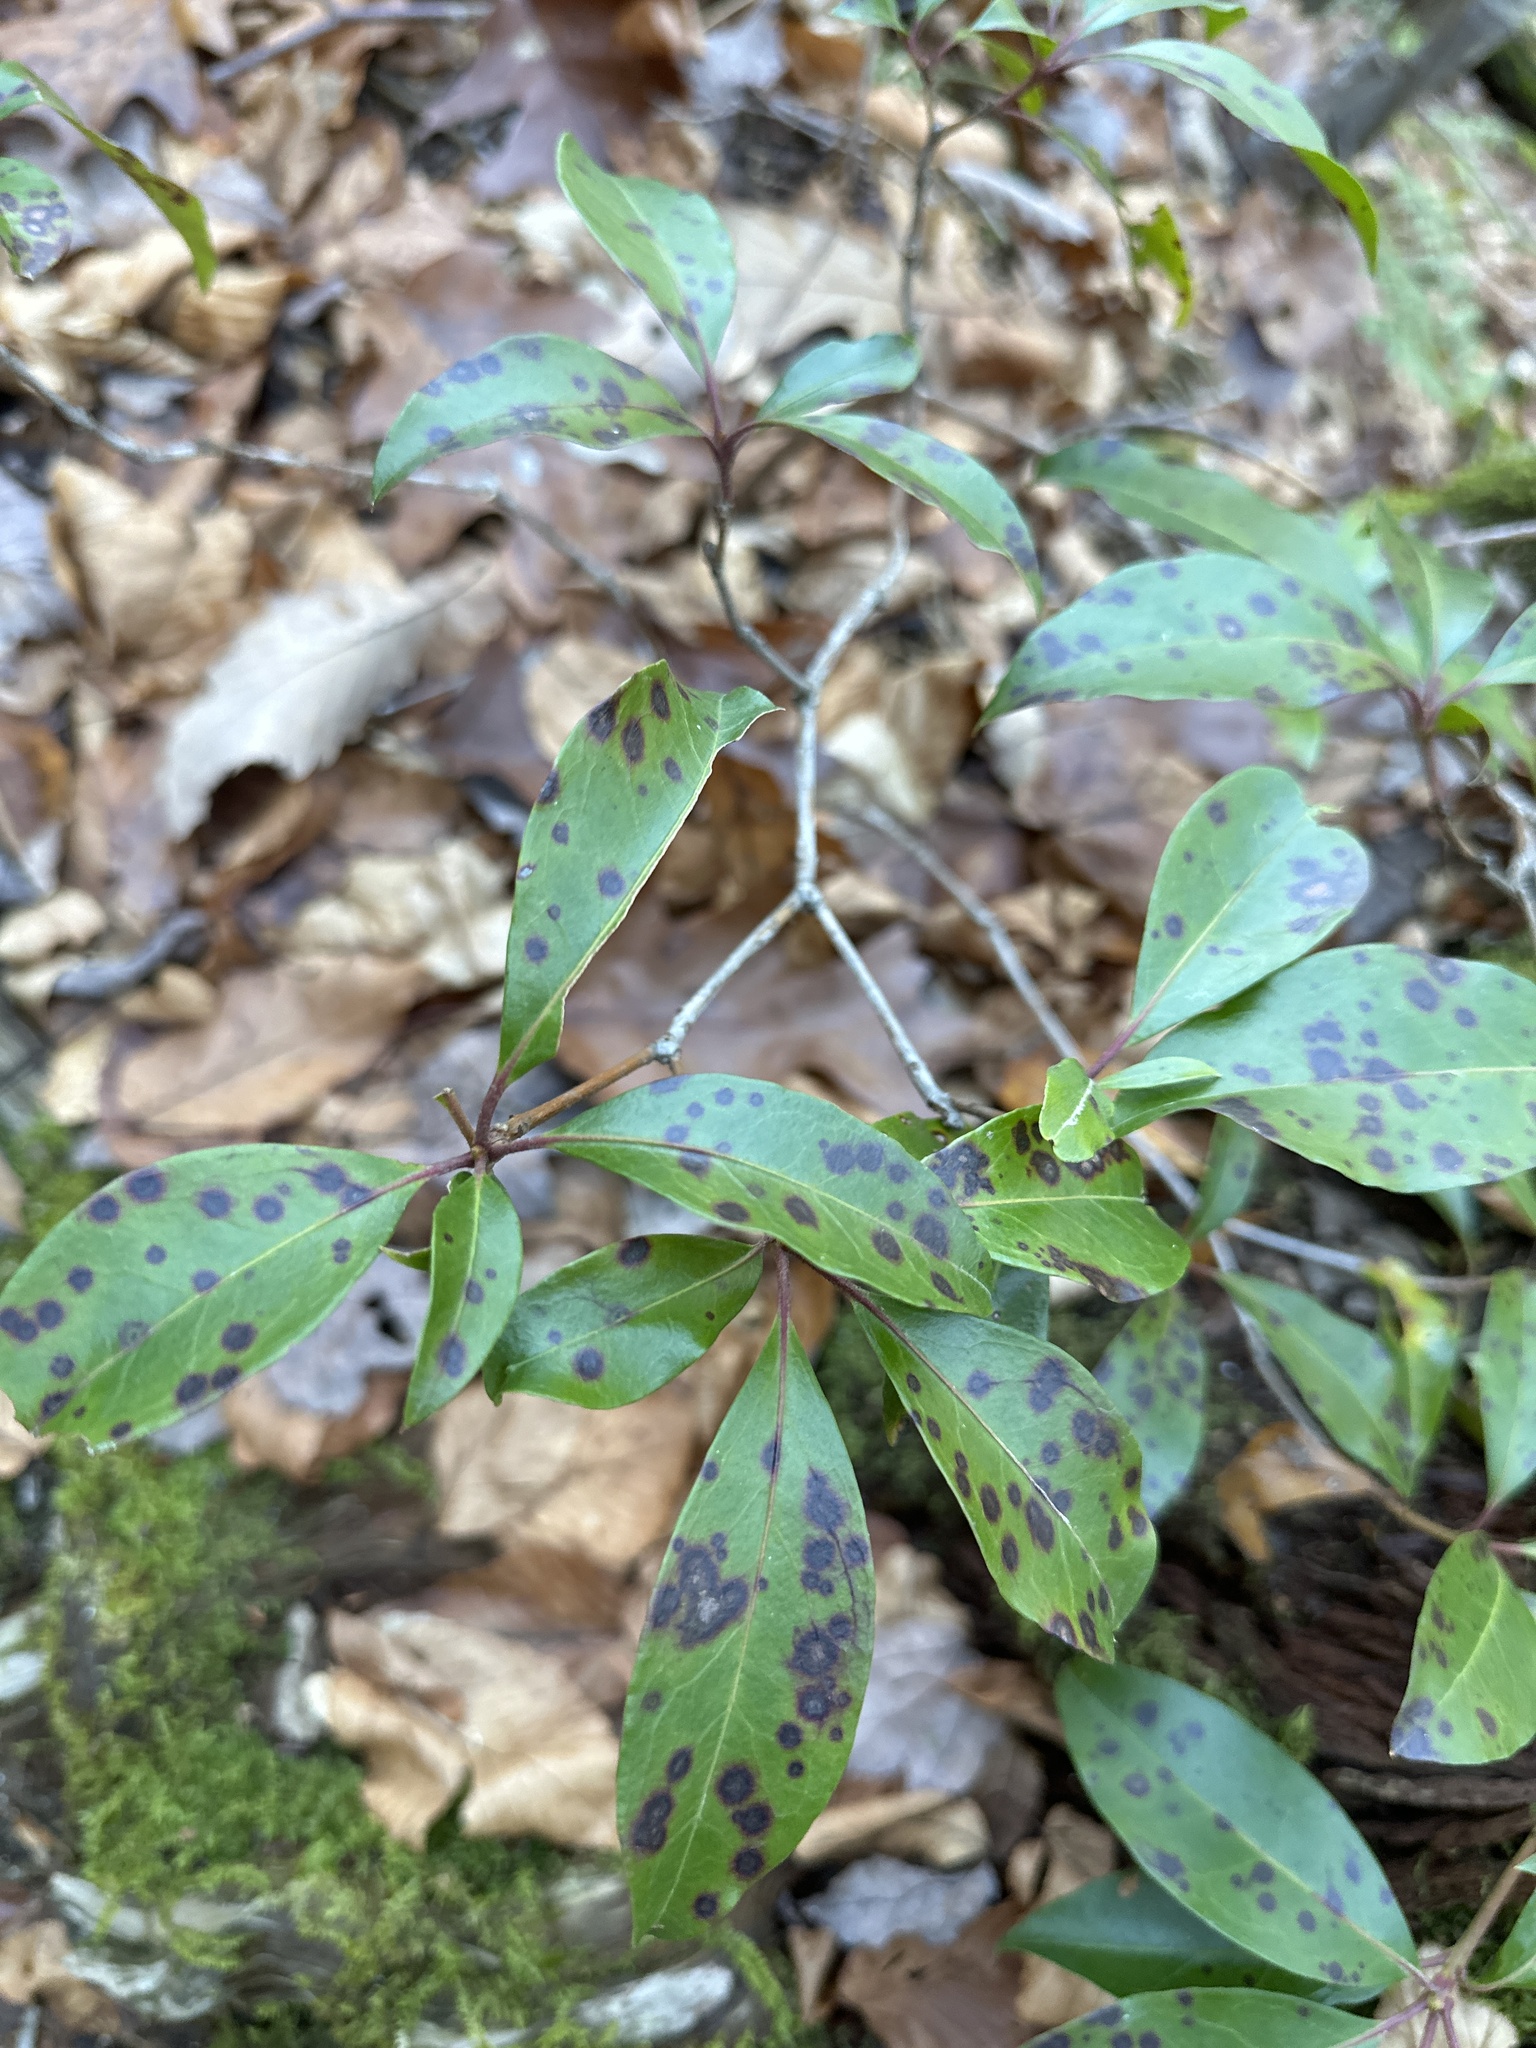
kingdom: Plantae
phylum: Tracheophyta
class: Magnoliopsida
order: Ericales
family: Ericaceae
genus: Kalmia
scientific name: Kalmia latifolia
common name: Mountain-laurel
